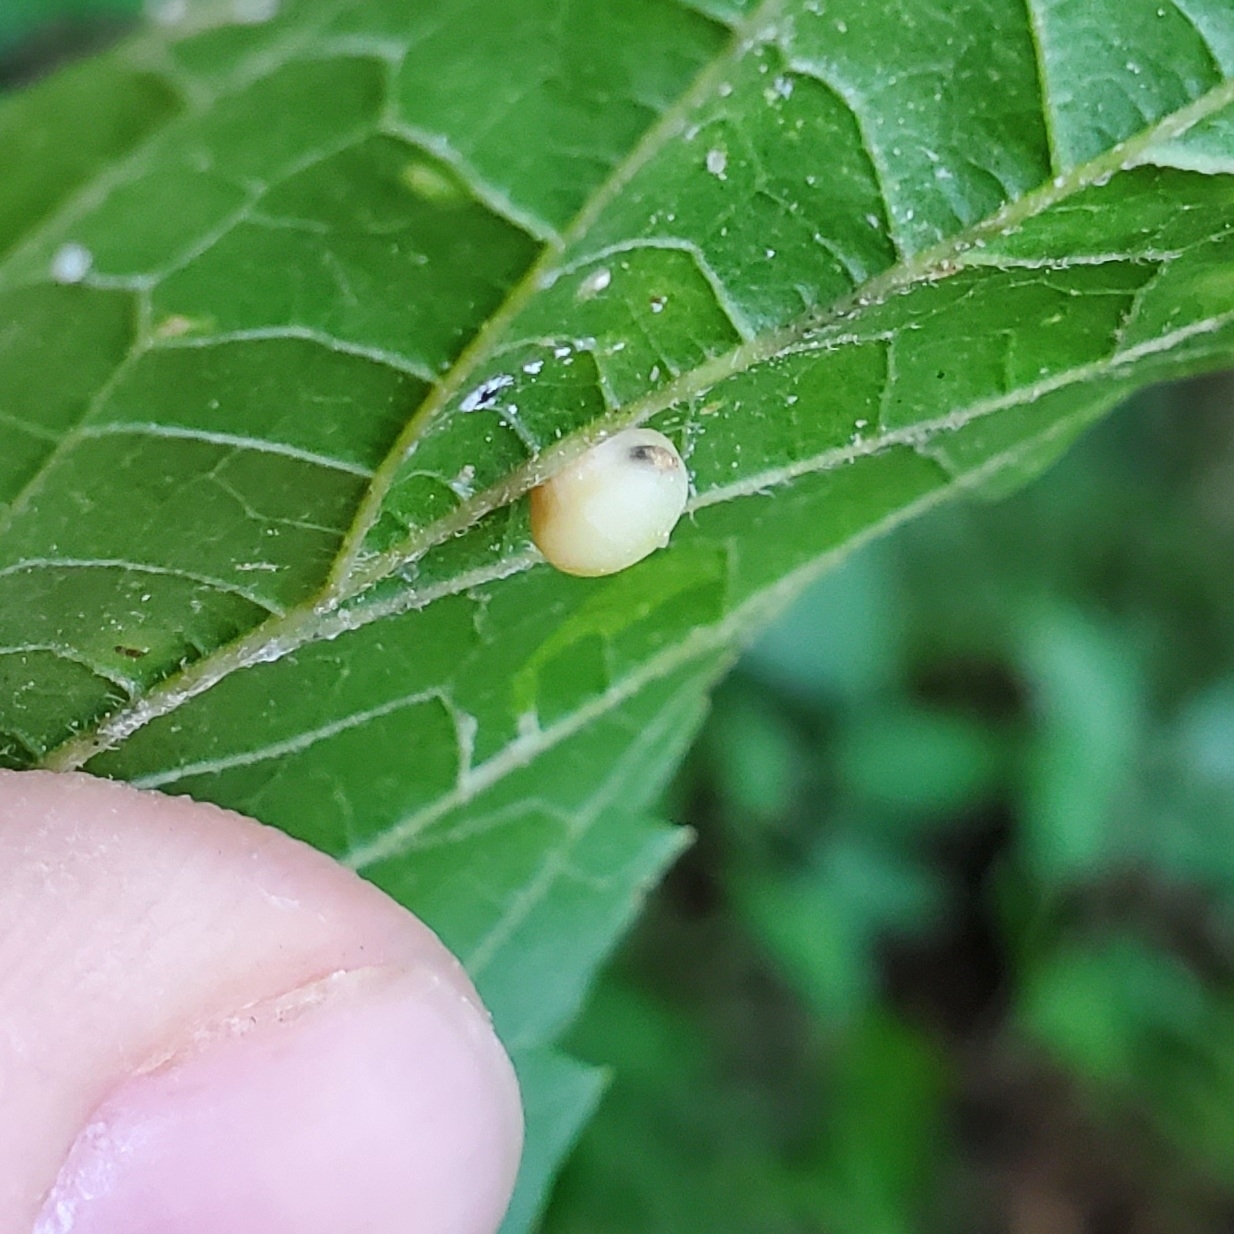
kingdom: Animalia
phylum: Arthropoda
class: Insecta
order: Diptera
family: Cecidomyiidae
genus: Celticecis
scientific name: Celticecis globosa
